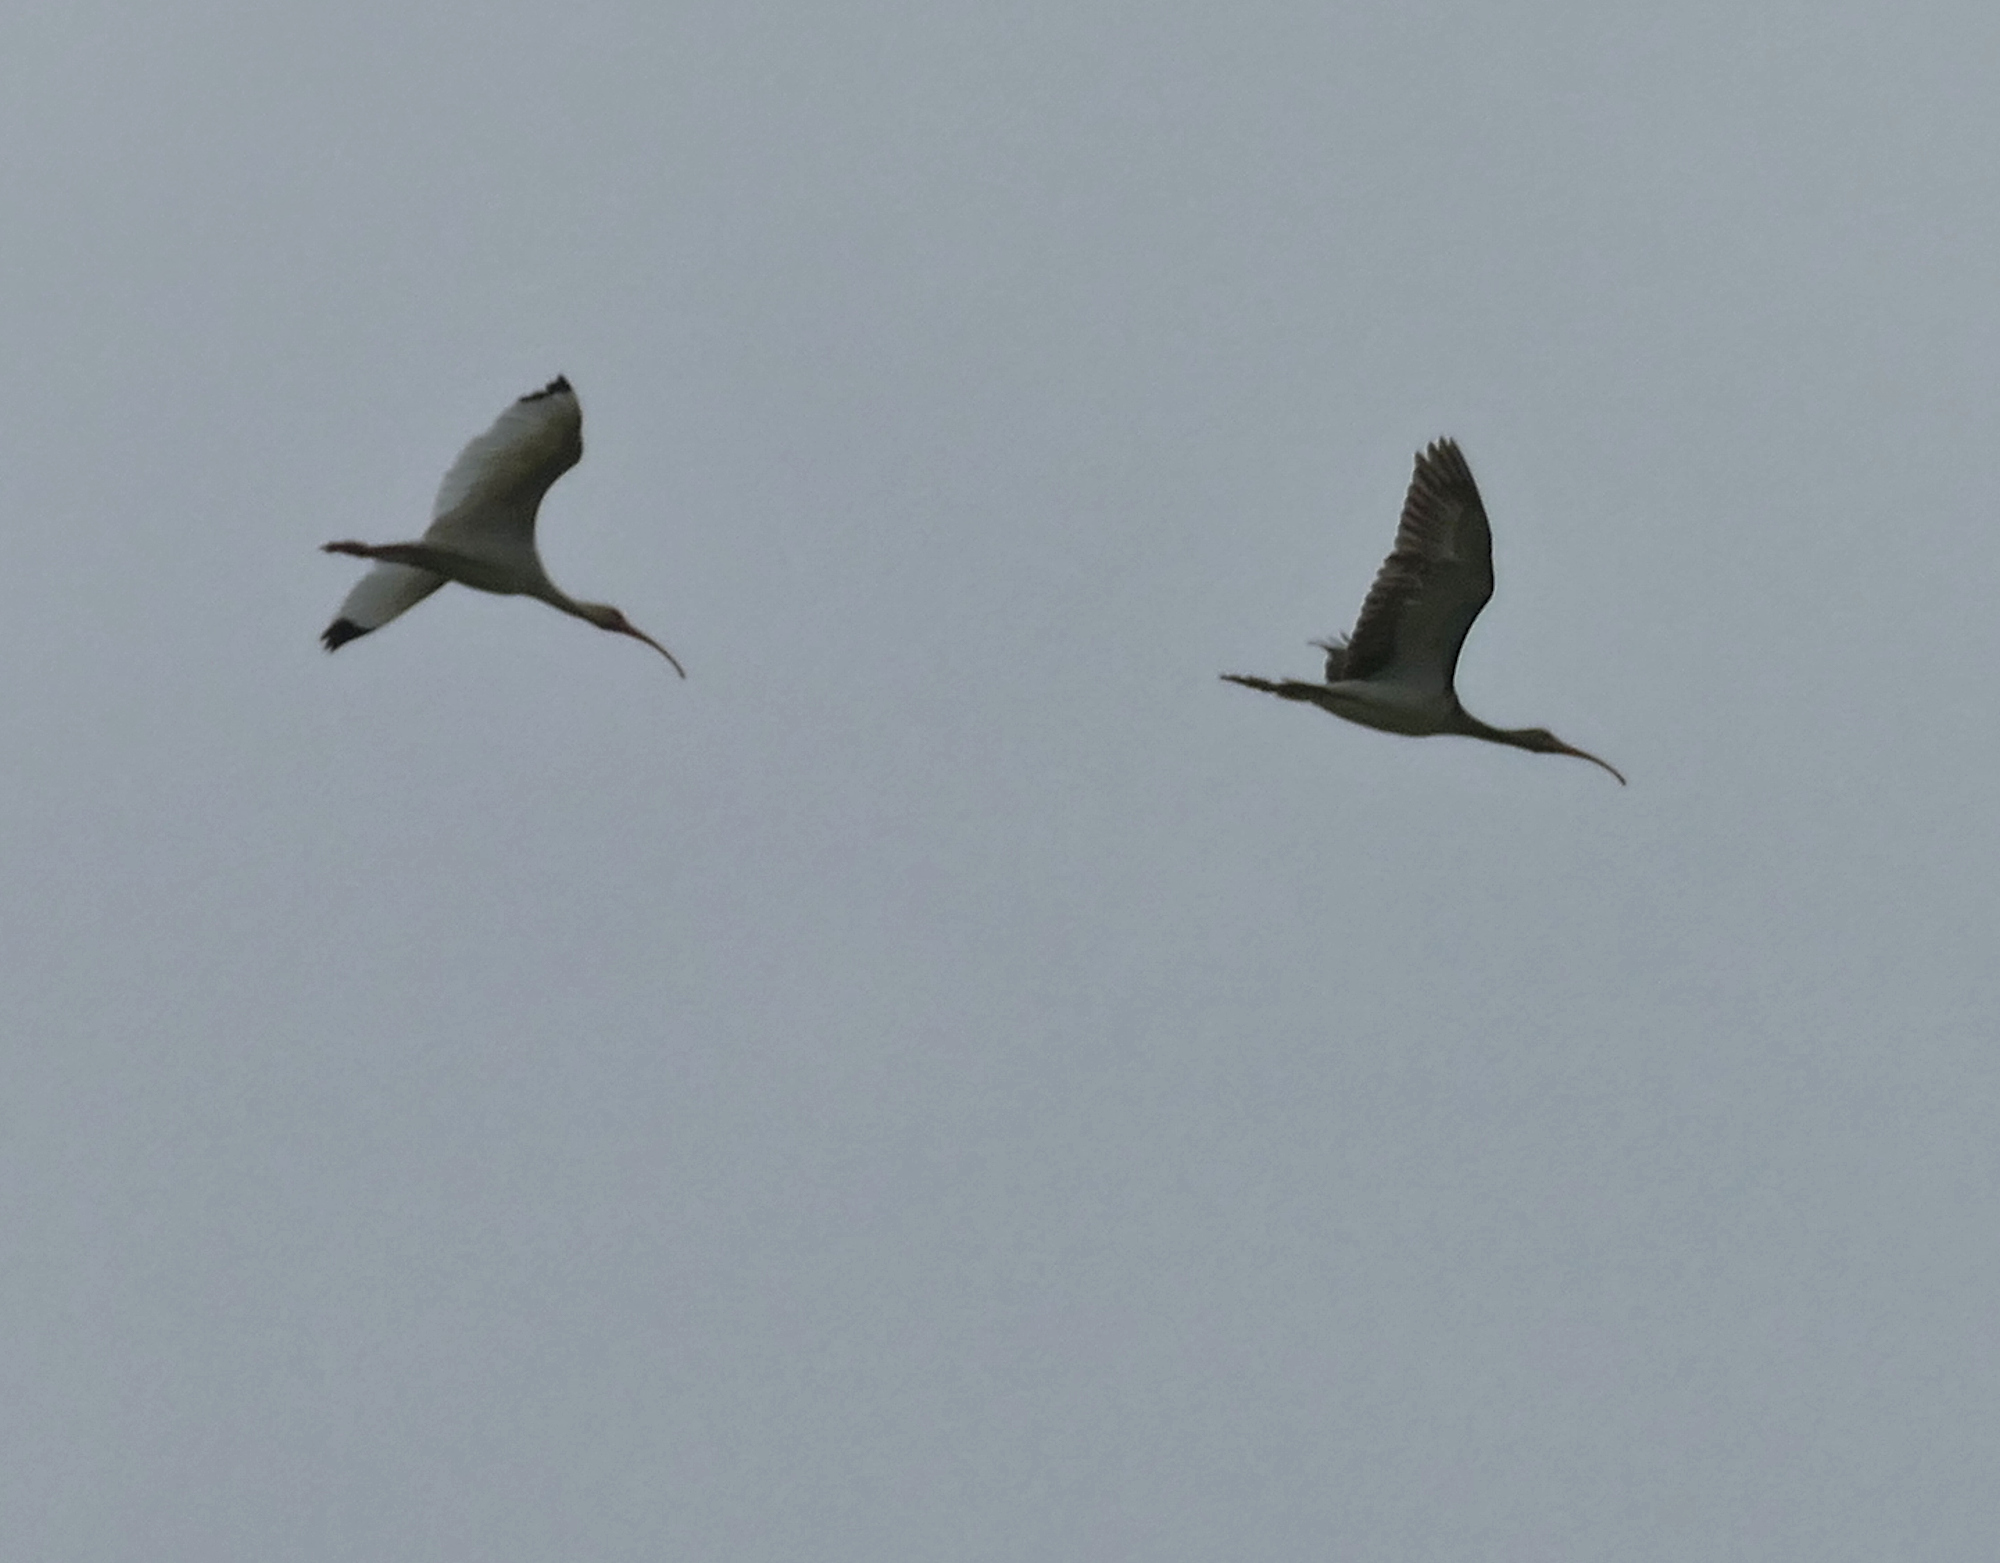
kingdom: Animalia
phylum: Chordata
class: Aves
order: Pelecaniformes
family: Threskiornithidae
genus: Eudocimus
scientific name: Eudocimus albus
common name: White ibis
